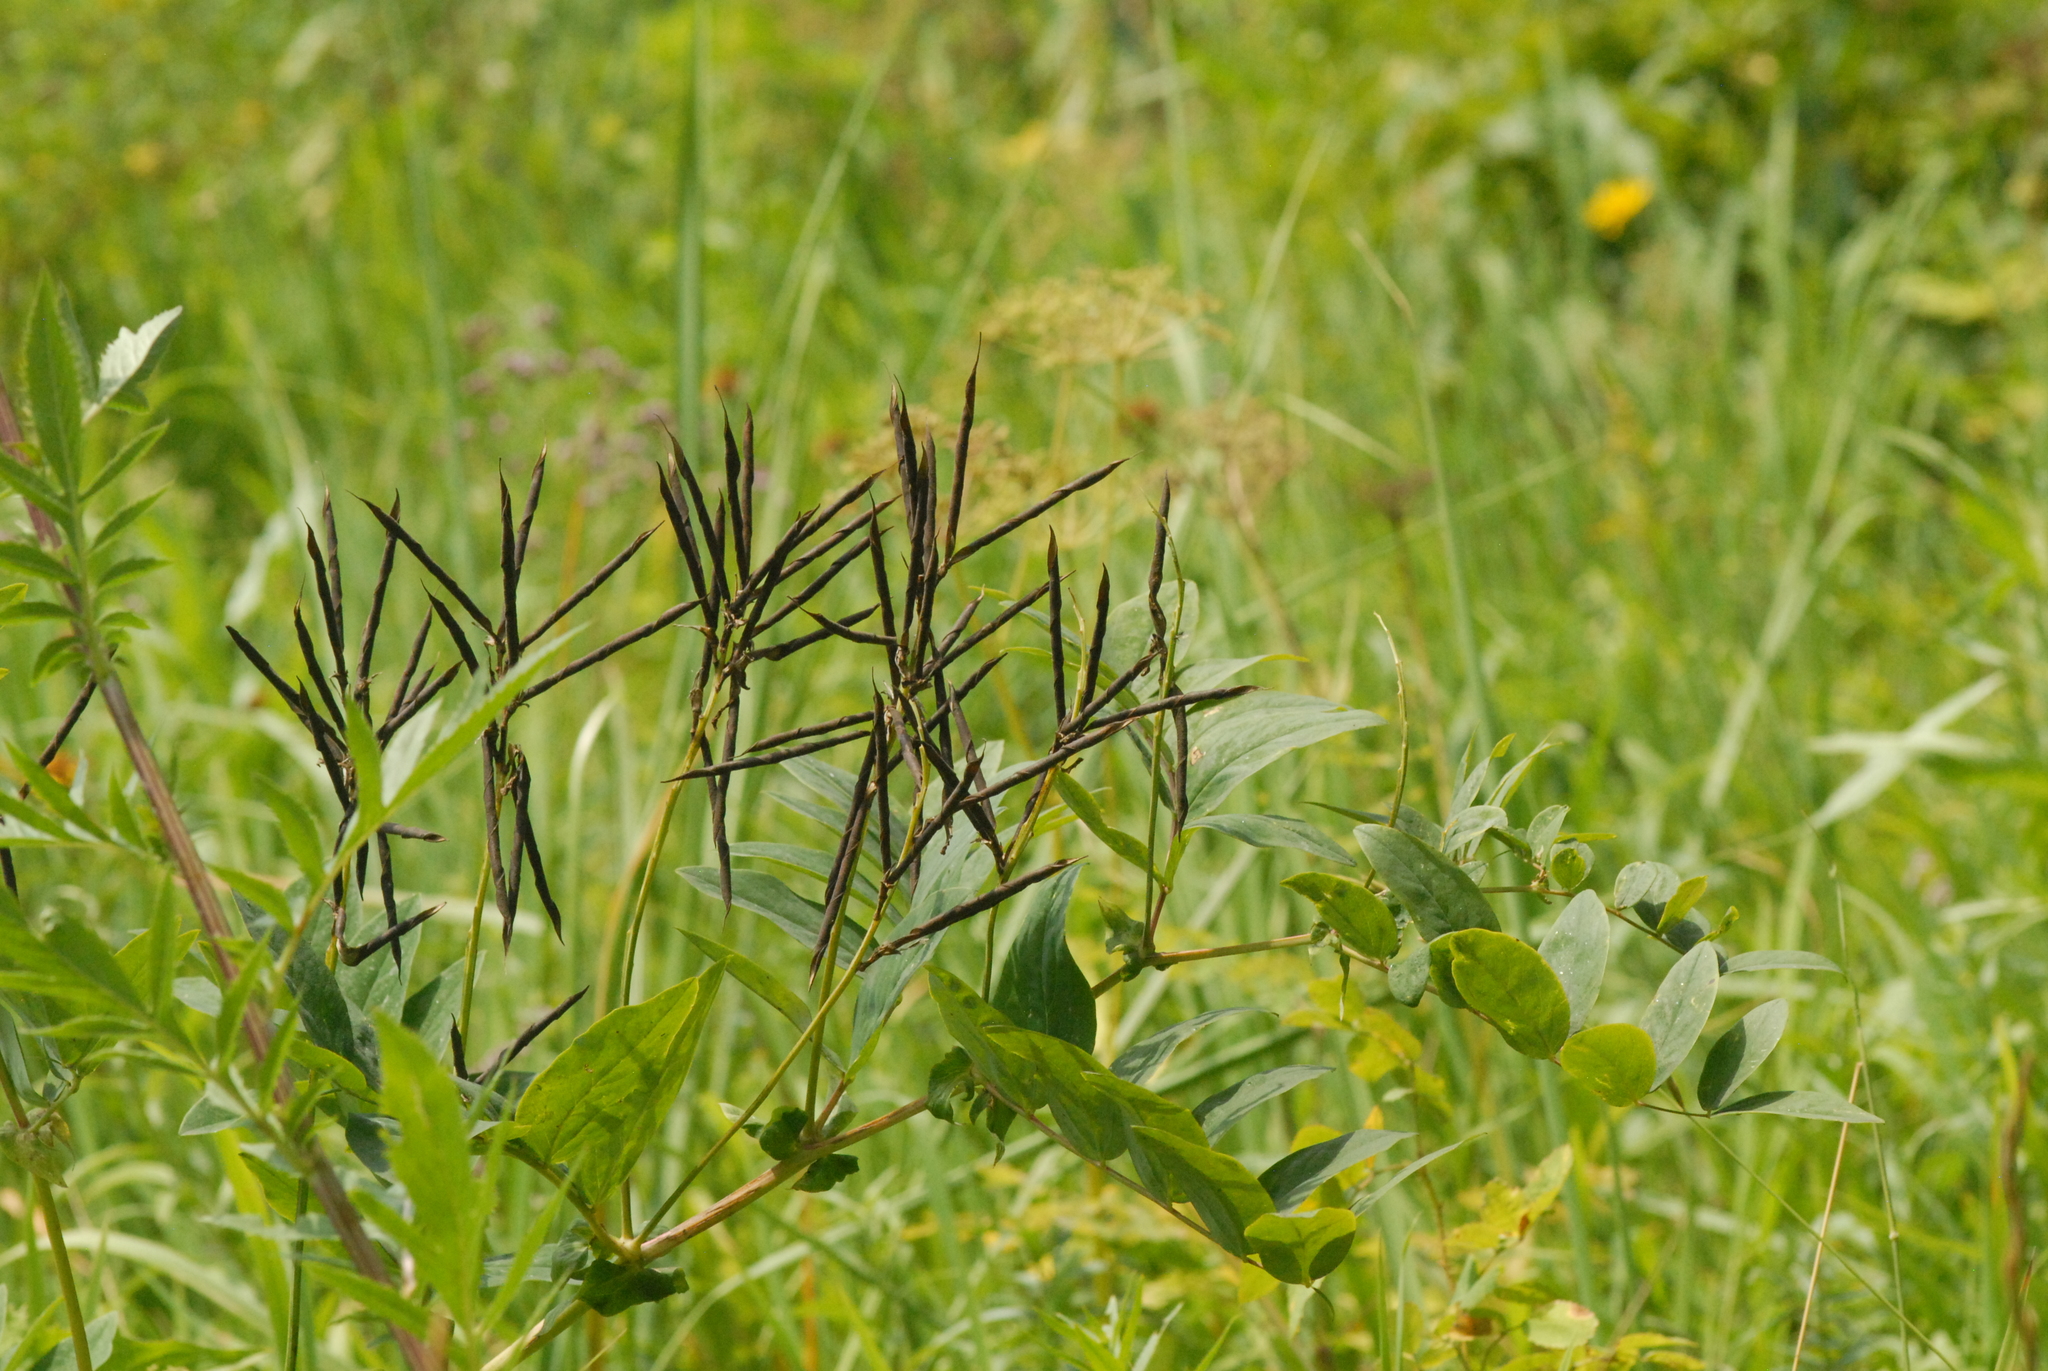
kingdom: Plantae
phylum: Tracheophyta
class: Magnoliopsida
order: Fabales
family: Fabaceae
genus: Lathyrus
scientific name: Lathyrus gmelinii
